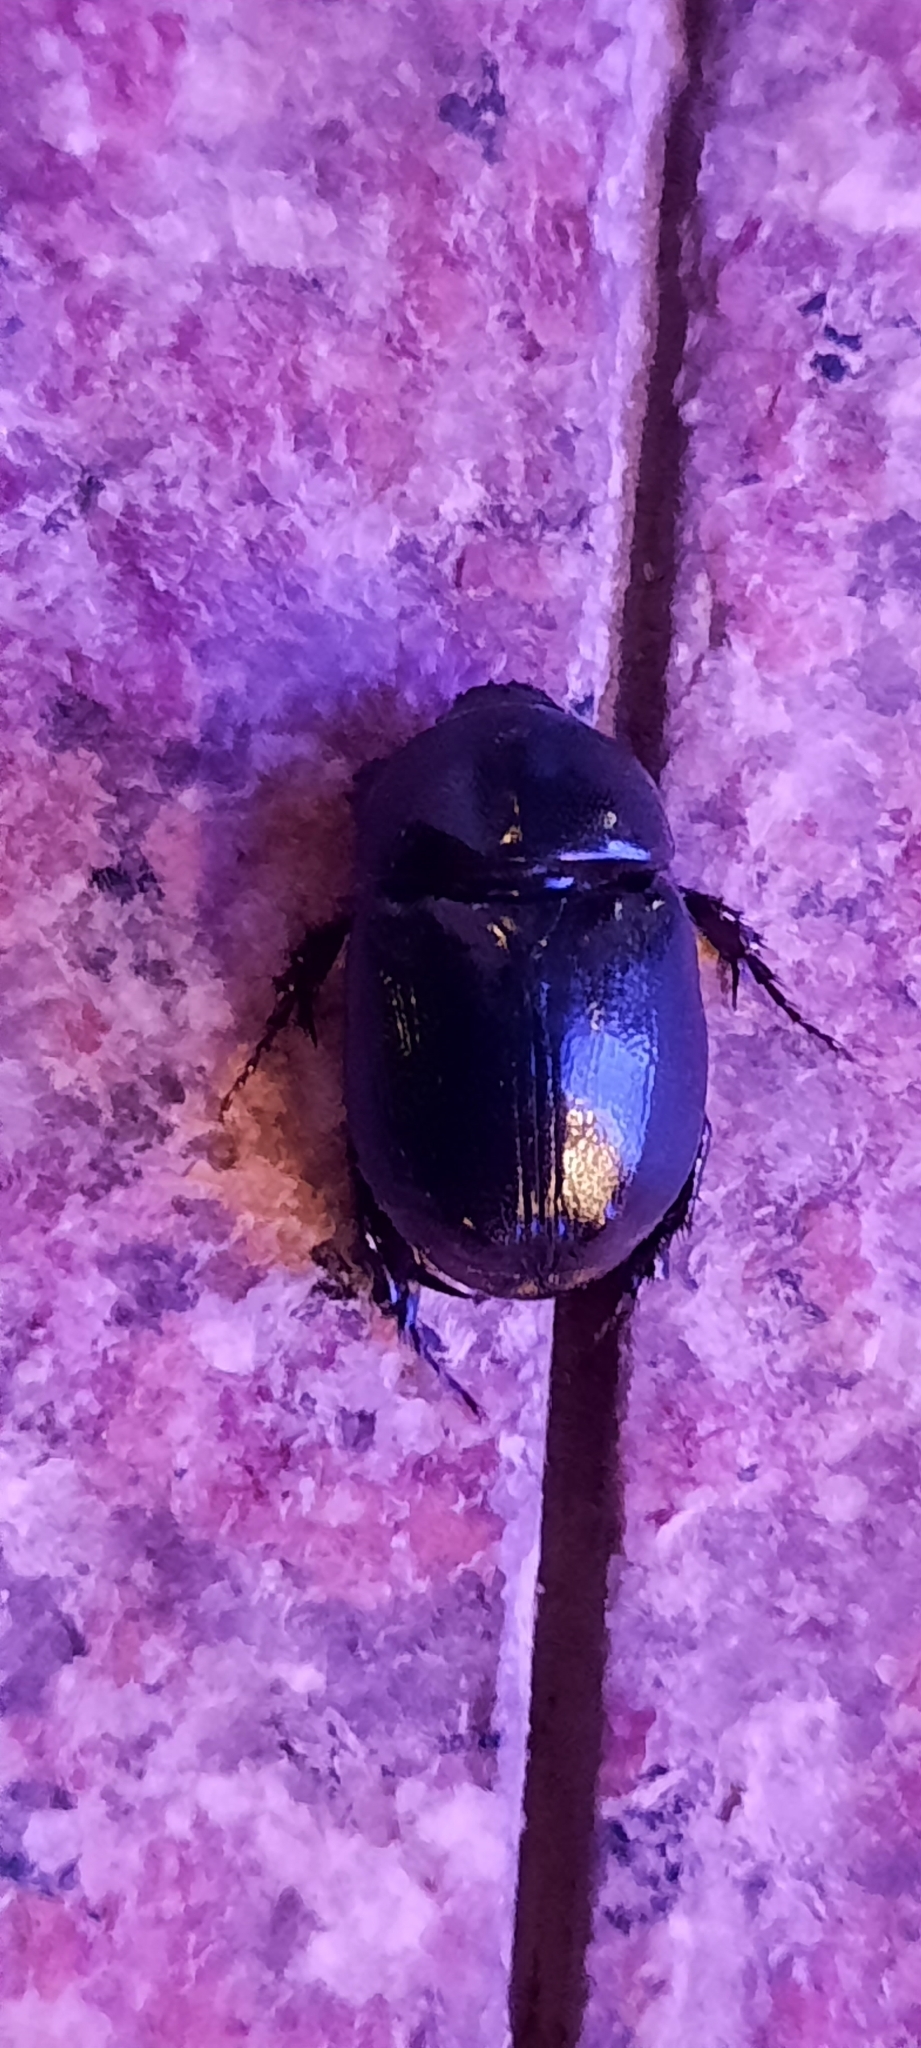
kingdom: Animalia
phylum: Arthropoda
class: Insecta
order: Coleoptera
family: Scarabaeidae
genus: Pentodon
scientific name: Pentodon algerinus
